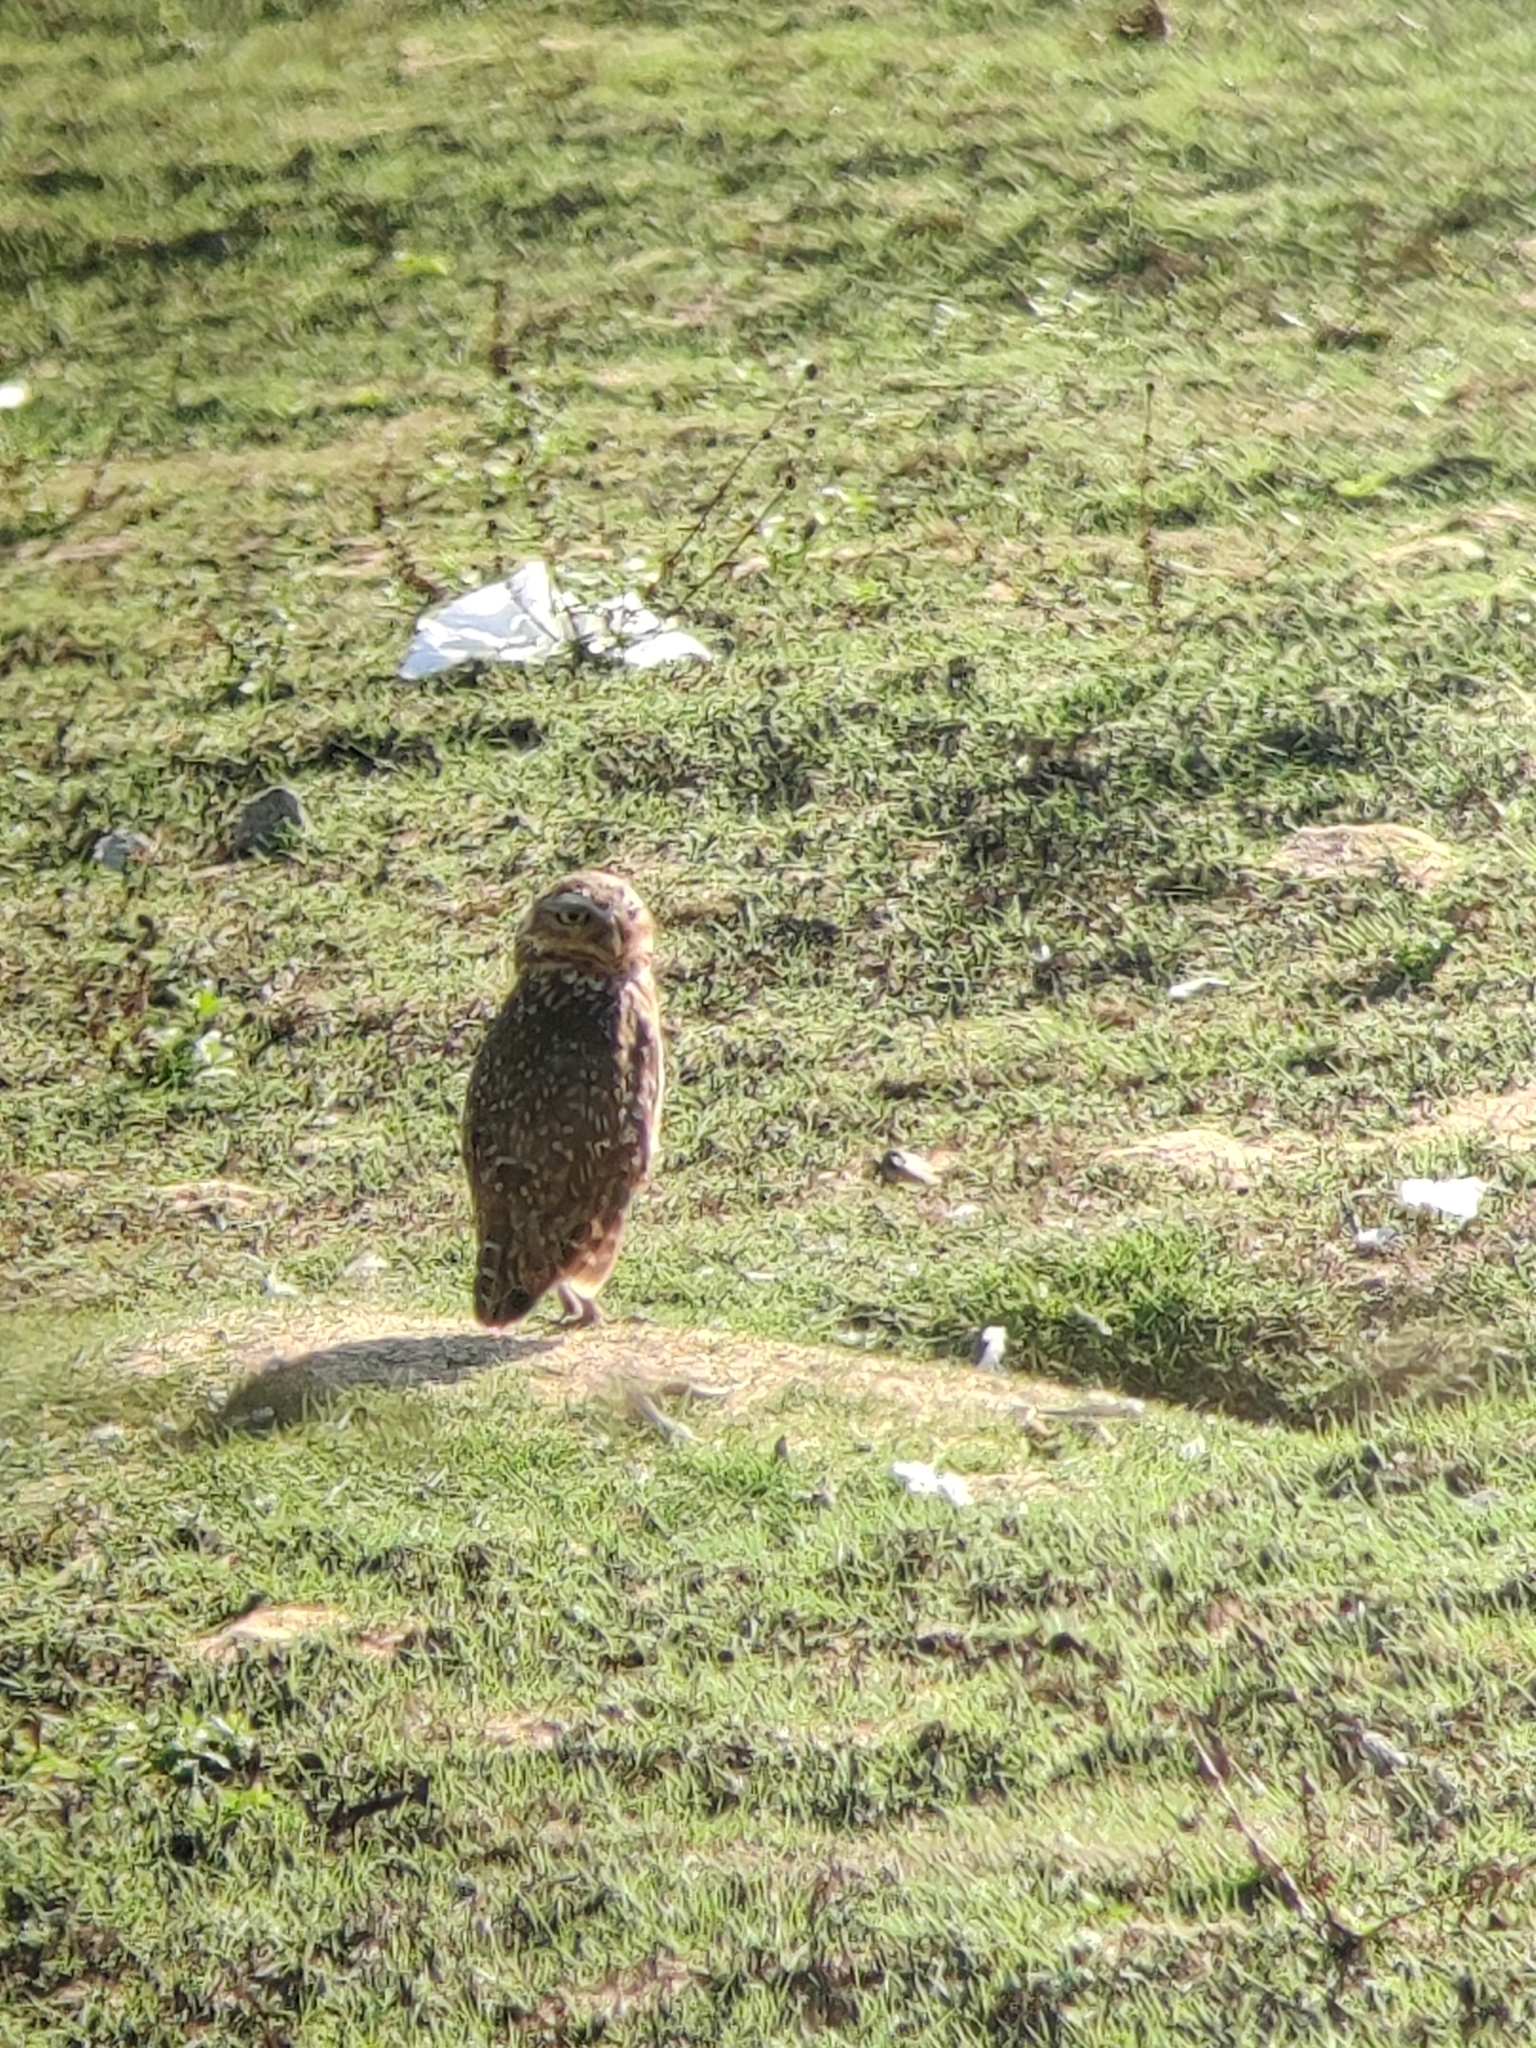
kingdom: Animalia
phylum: Chordata
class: Aves
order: Strigiformes
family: Strigidae
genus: Athene
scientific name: Athene cunicularia
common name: Burrowing owl
